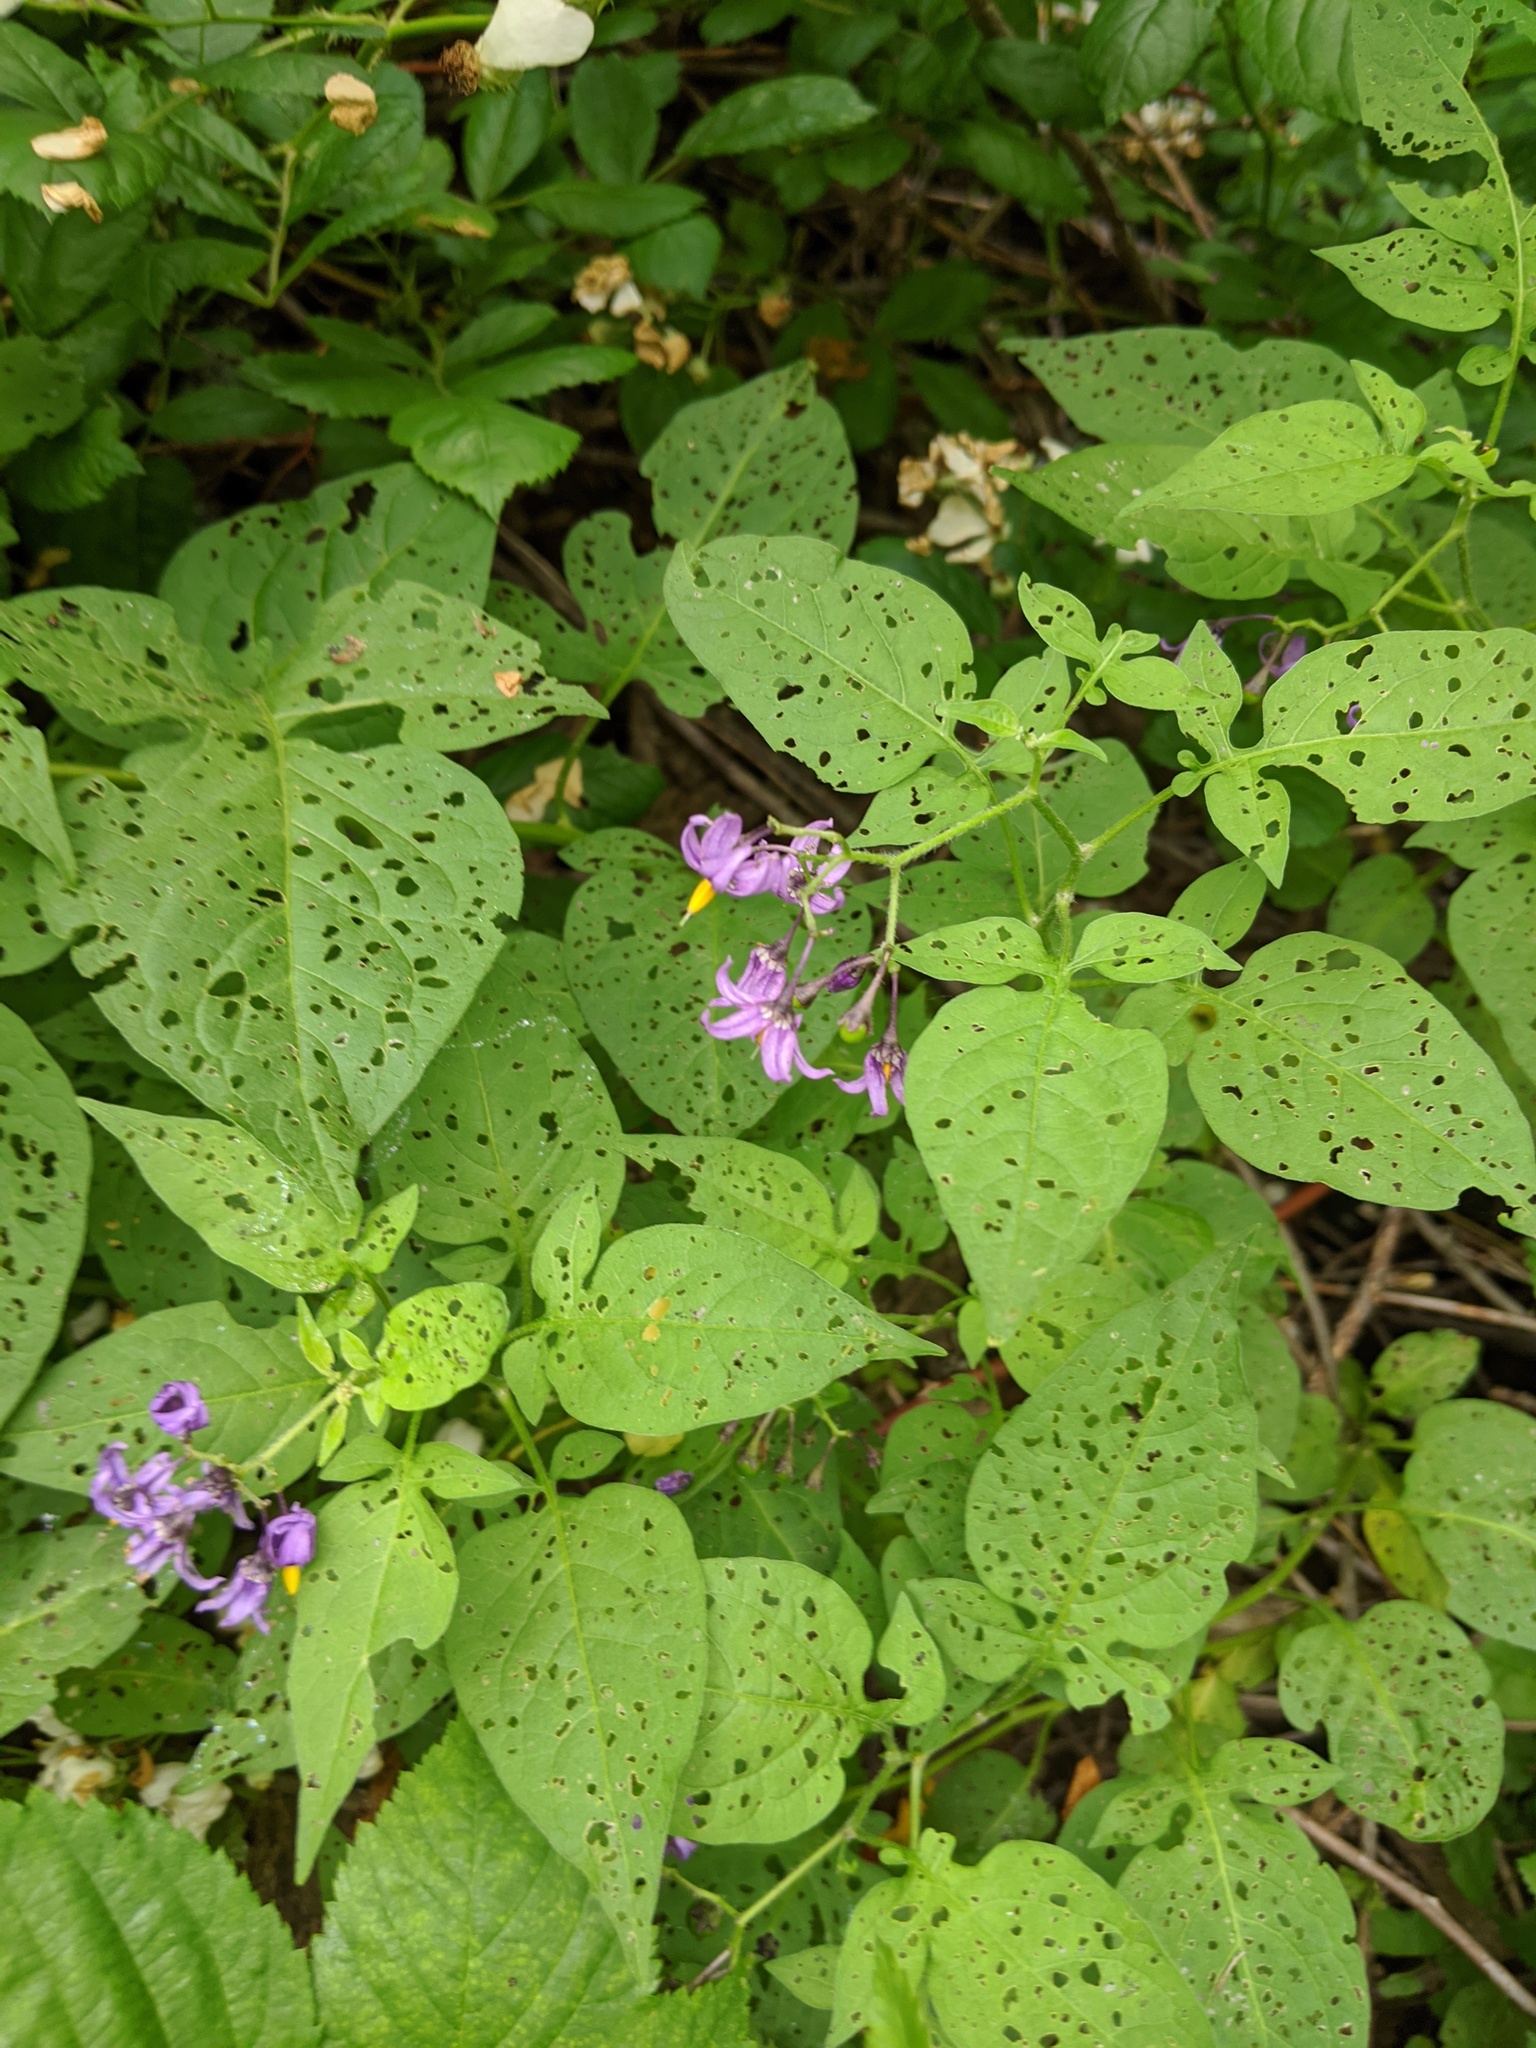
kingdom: Plantae
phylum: Tracheophyta
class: Magnoliopsida
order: Solanales
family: Solanaceae
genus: Solanum
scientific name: Solanum dulcamara
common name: Climbing nightshade
